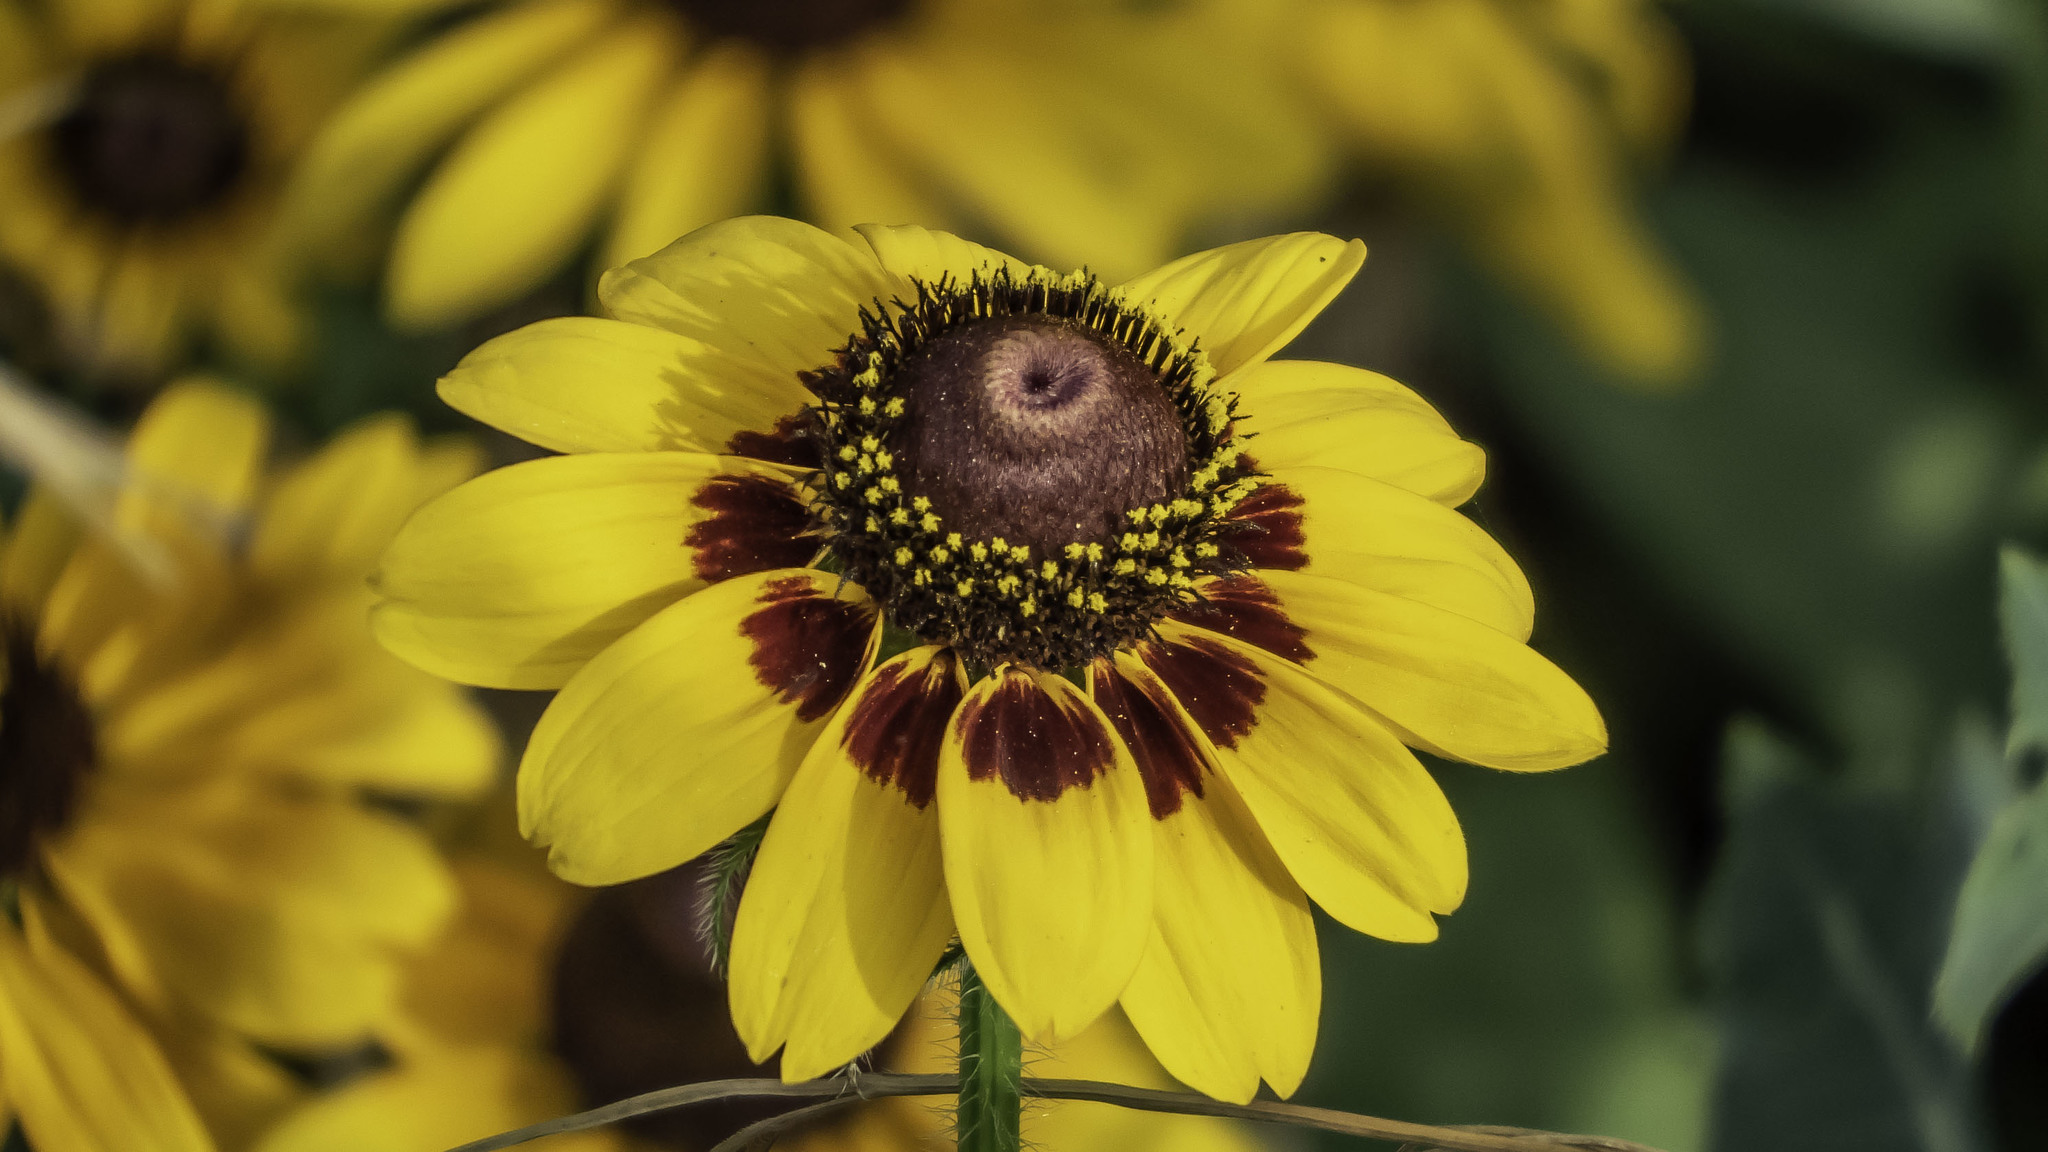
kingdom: Plantae
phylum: Tracheophyta
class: Magnoliopsida
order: Asterales
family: Asteraceae
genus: Rudbeckia
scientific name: Rudbeckia hirta
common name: Black-eyed-susan
